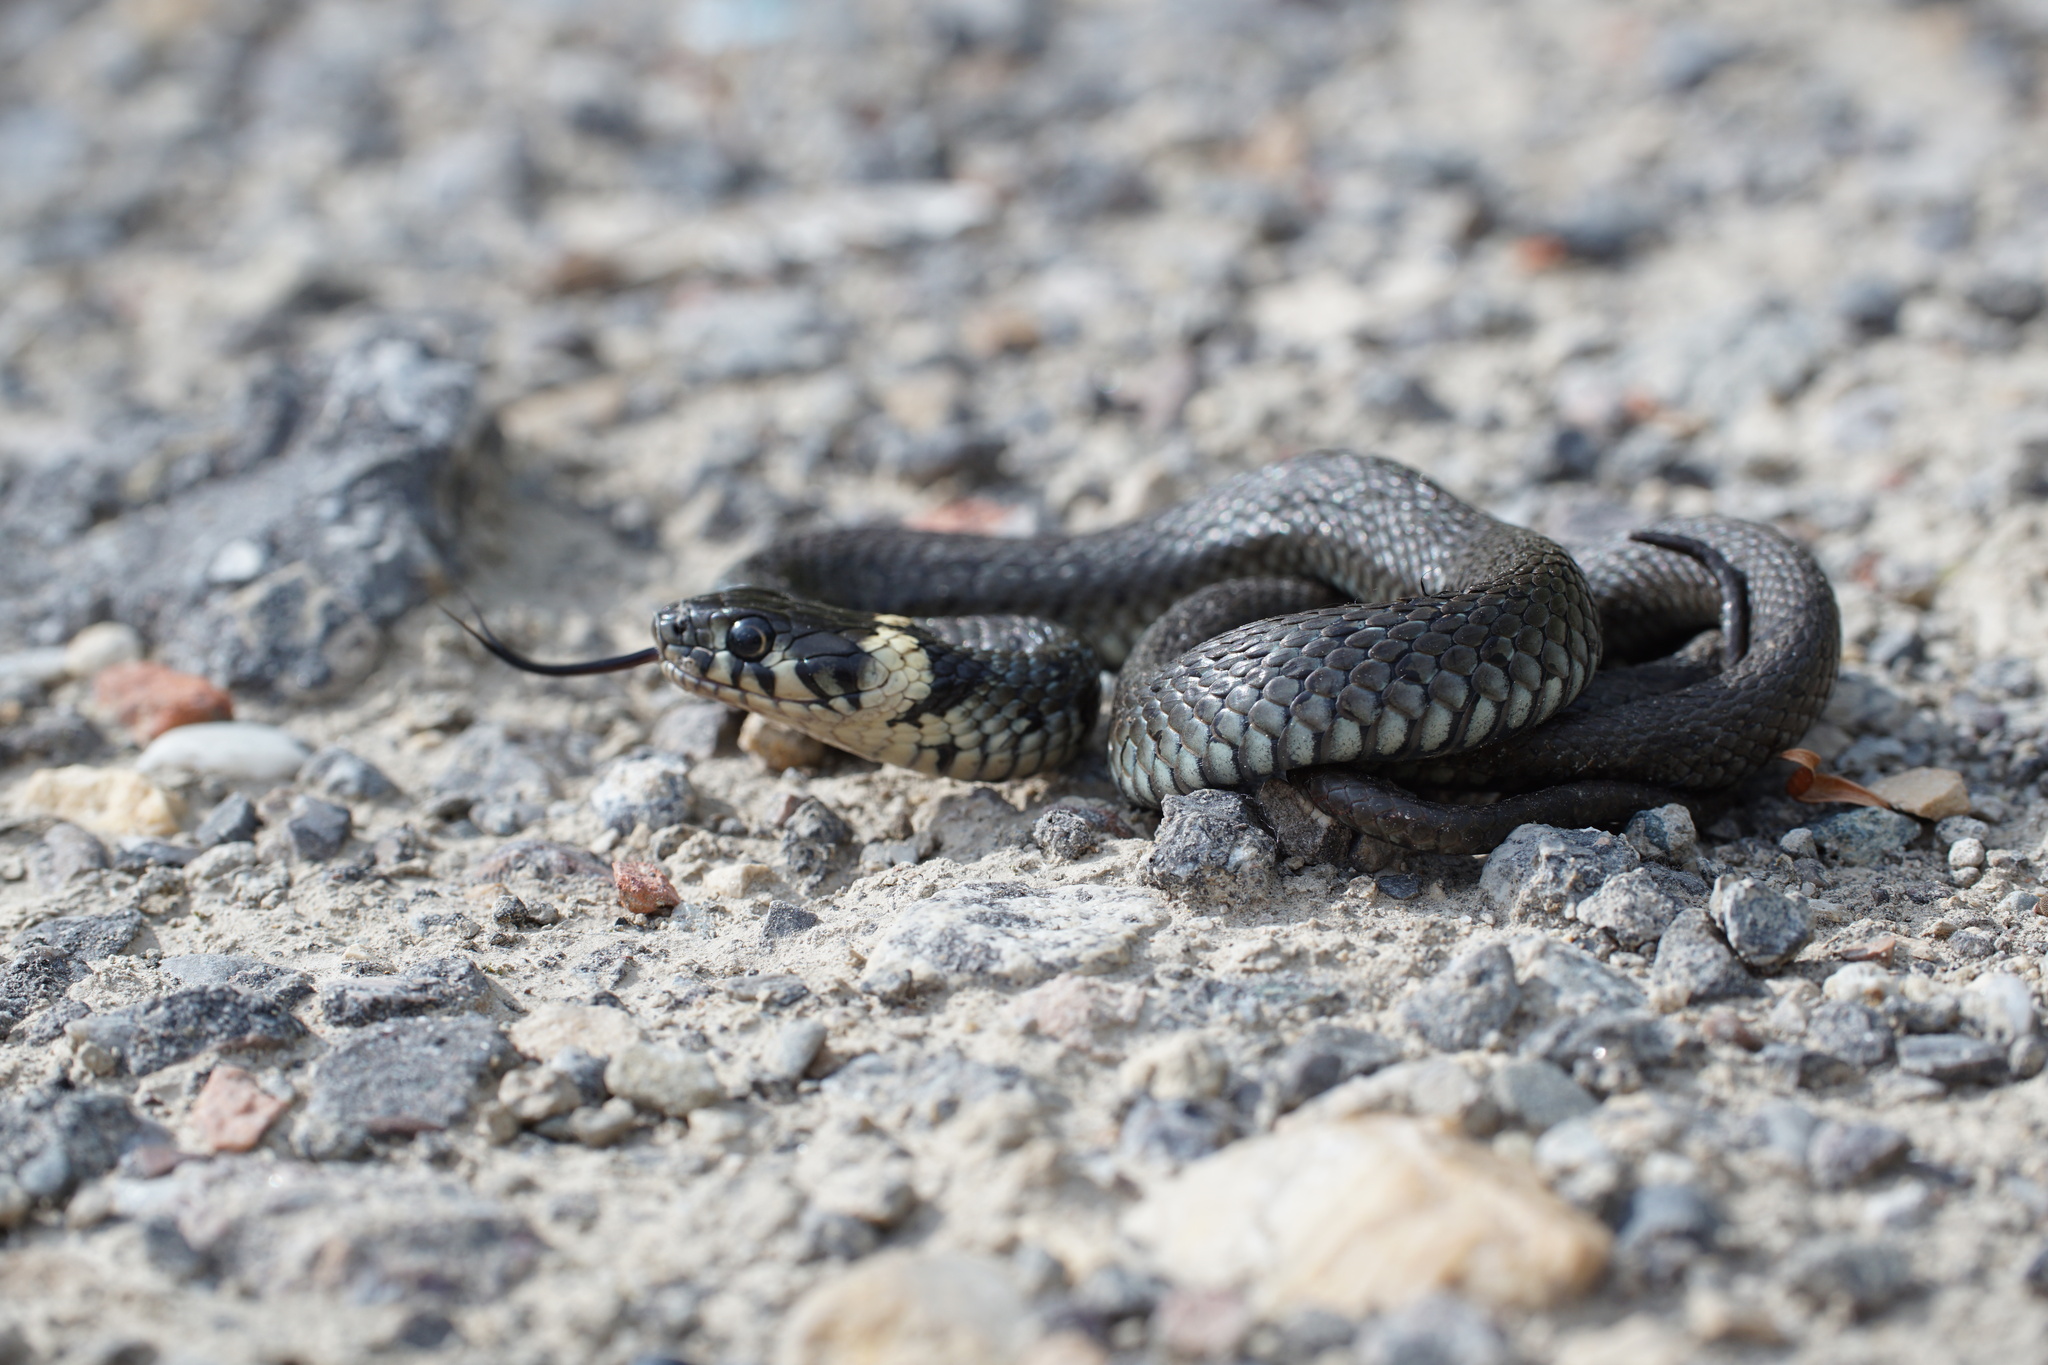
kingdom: Animalia
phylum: Chordata
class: Squamata
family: Colubridae
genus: Natrix
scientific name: Natrix natrix
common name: Grass snake
